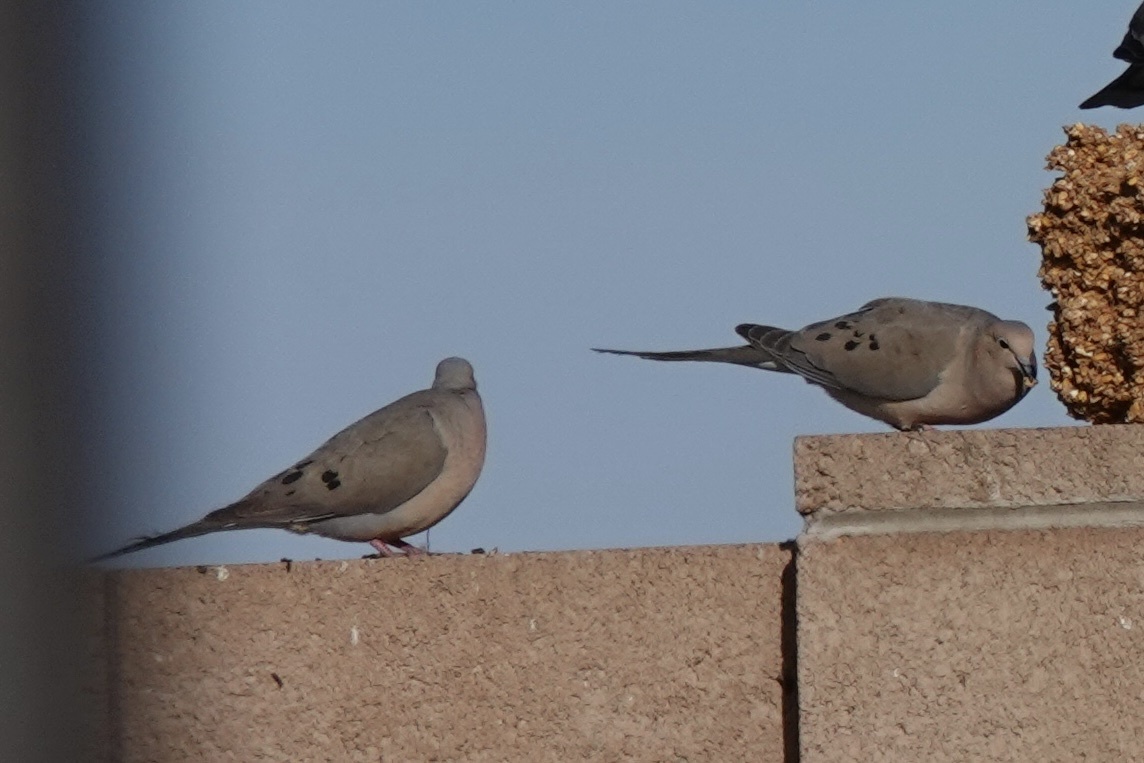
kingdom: Animalia
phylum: Chordata
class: Aves
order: Columbiformes
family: Columbidae
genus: Zenaida
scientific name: Zenaida macroura
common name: Mourning dove
